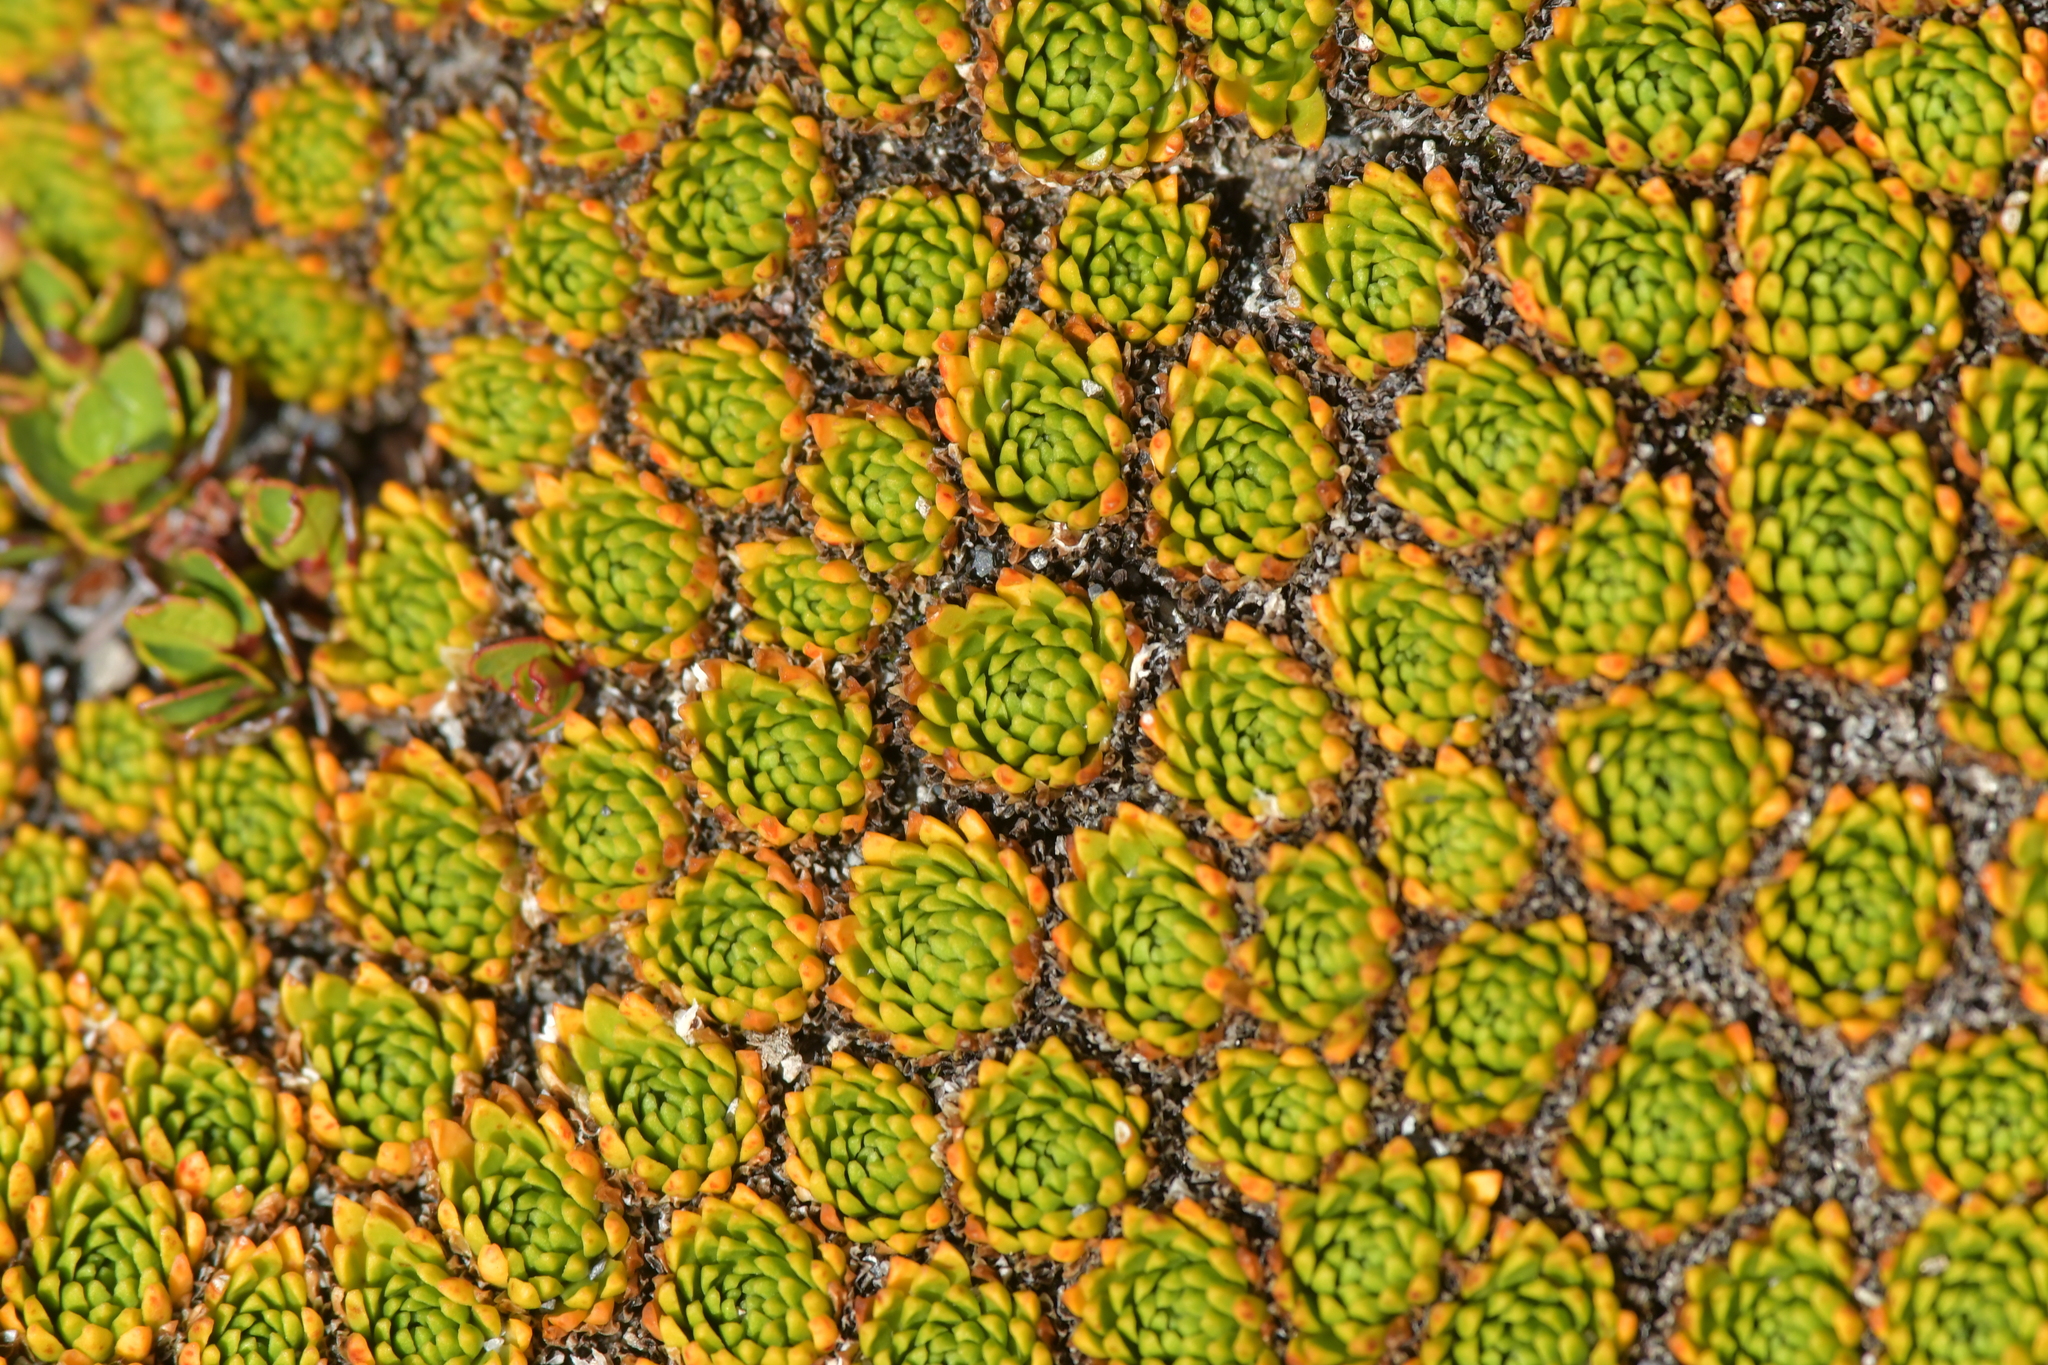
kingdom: Plantae
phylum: Tracheophyta
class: Magnoliopsida
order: Caryophyllales
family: Montiaceae
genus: Hectorella
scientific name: Hectorella caespitosa
